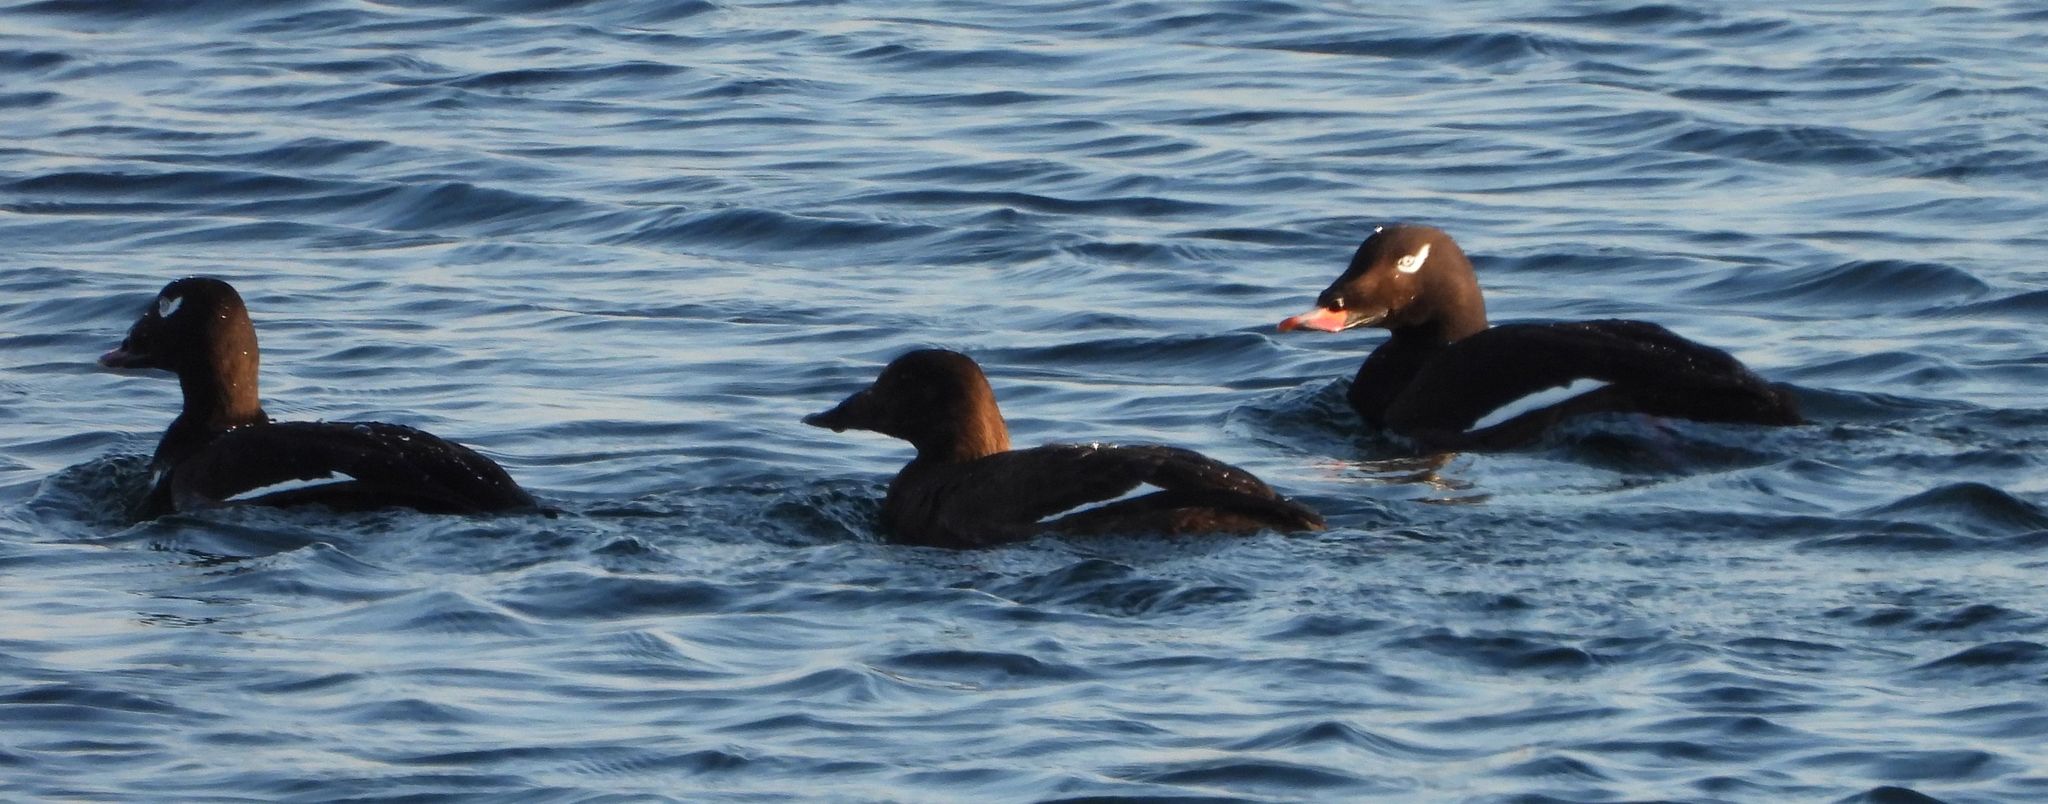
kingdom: Animalia
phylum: Chordata
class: Aves
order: Anseriformes
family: Anatidae
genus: Melanitta
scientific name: Melanitta deglandi
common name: White-winged scoter
